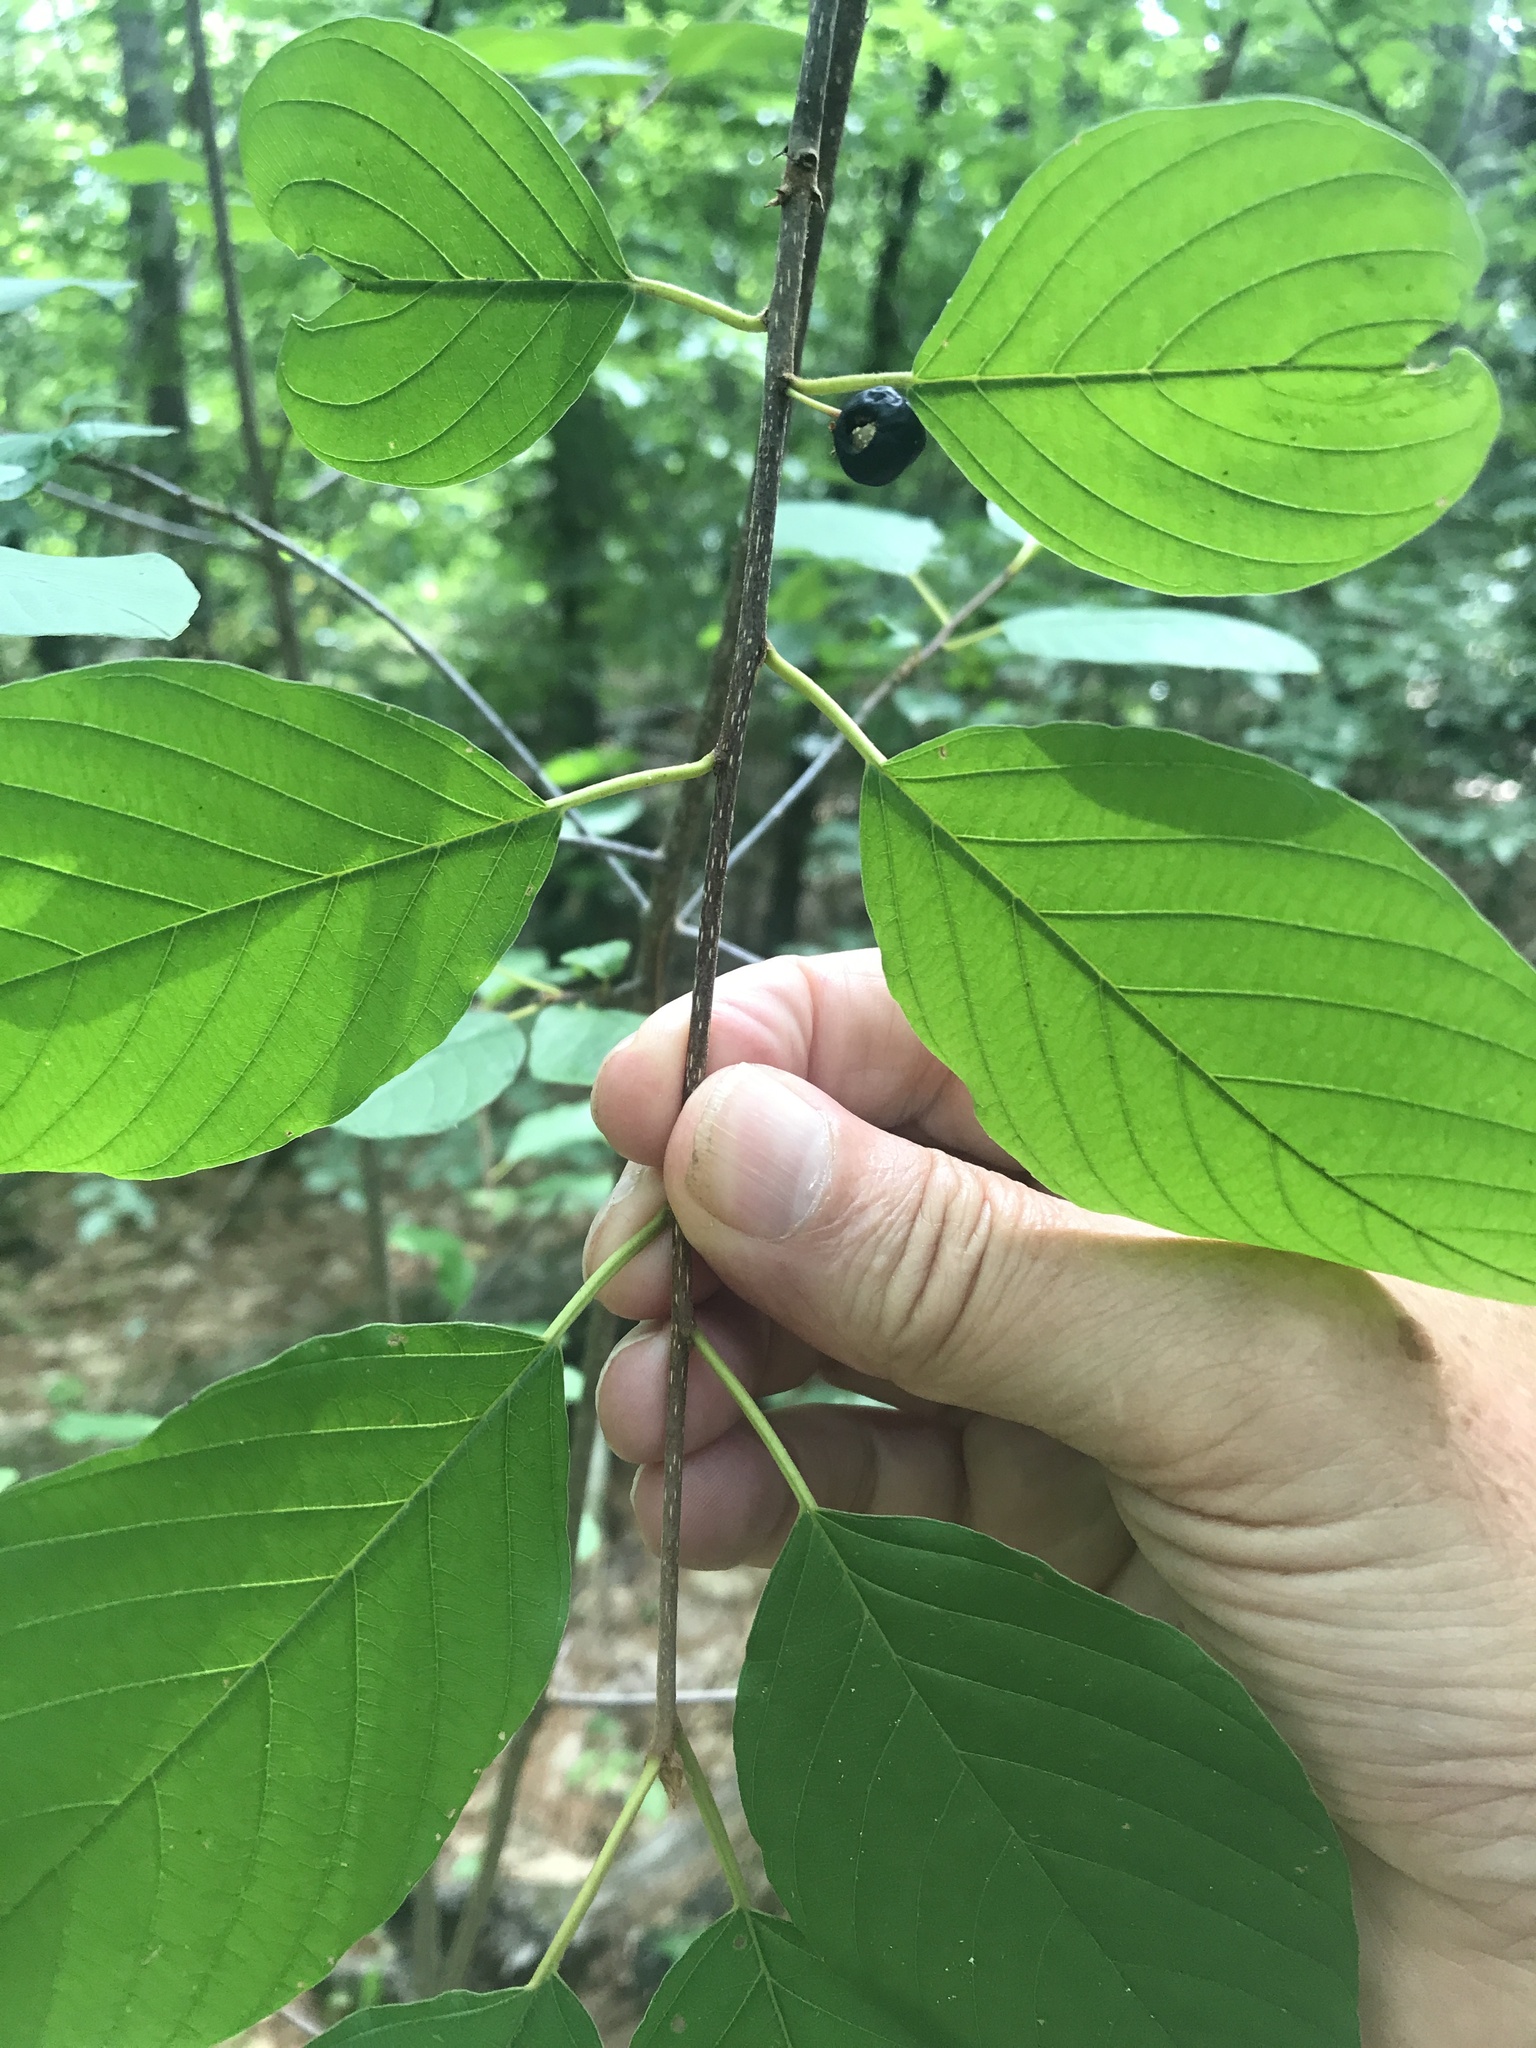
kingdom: Plantae
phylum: Tracheophyta
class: Magnoliopsida
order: Rosales
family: Rhamnaceae
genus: Frangula
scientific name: Frangula alnus
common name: Alder buckthorn
